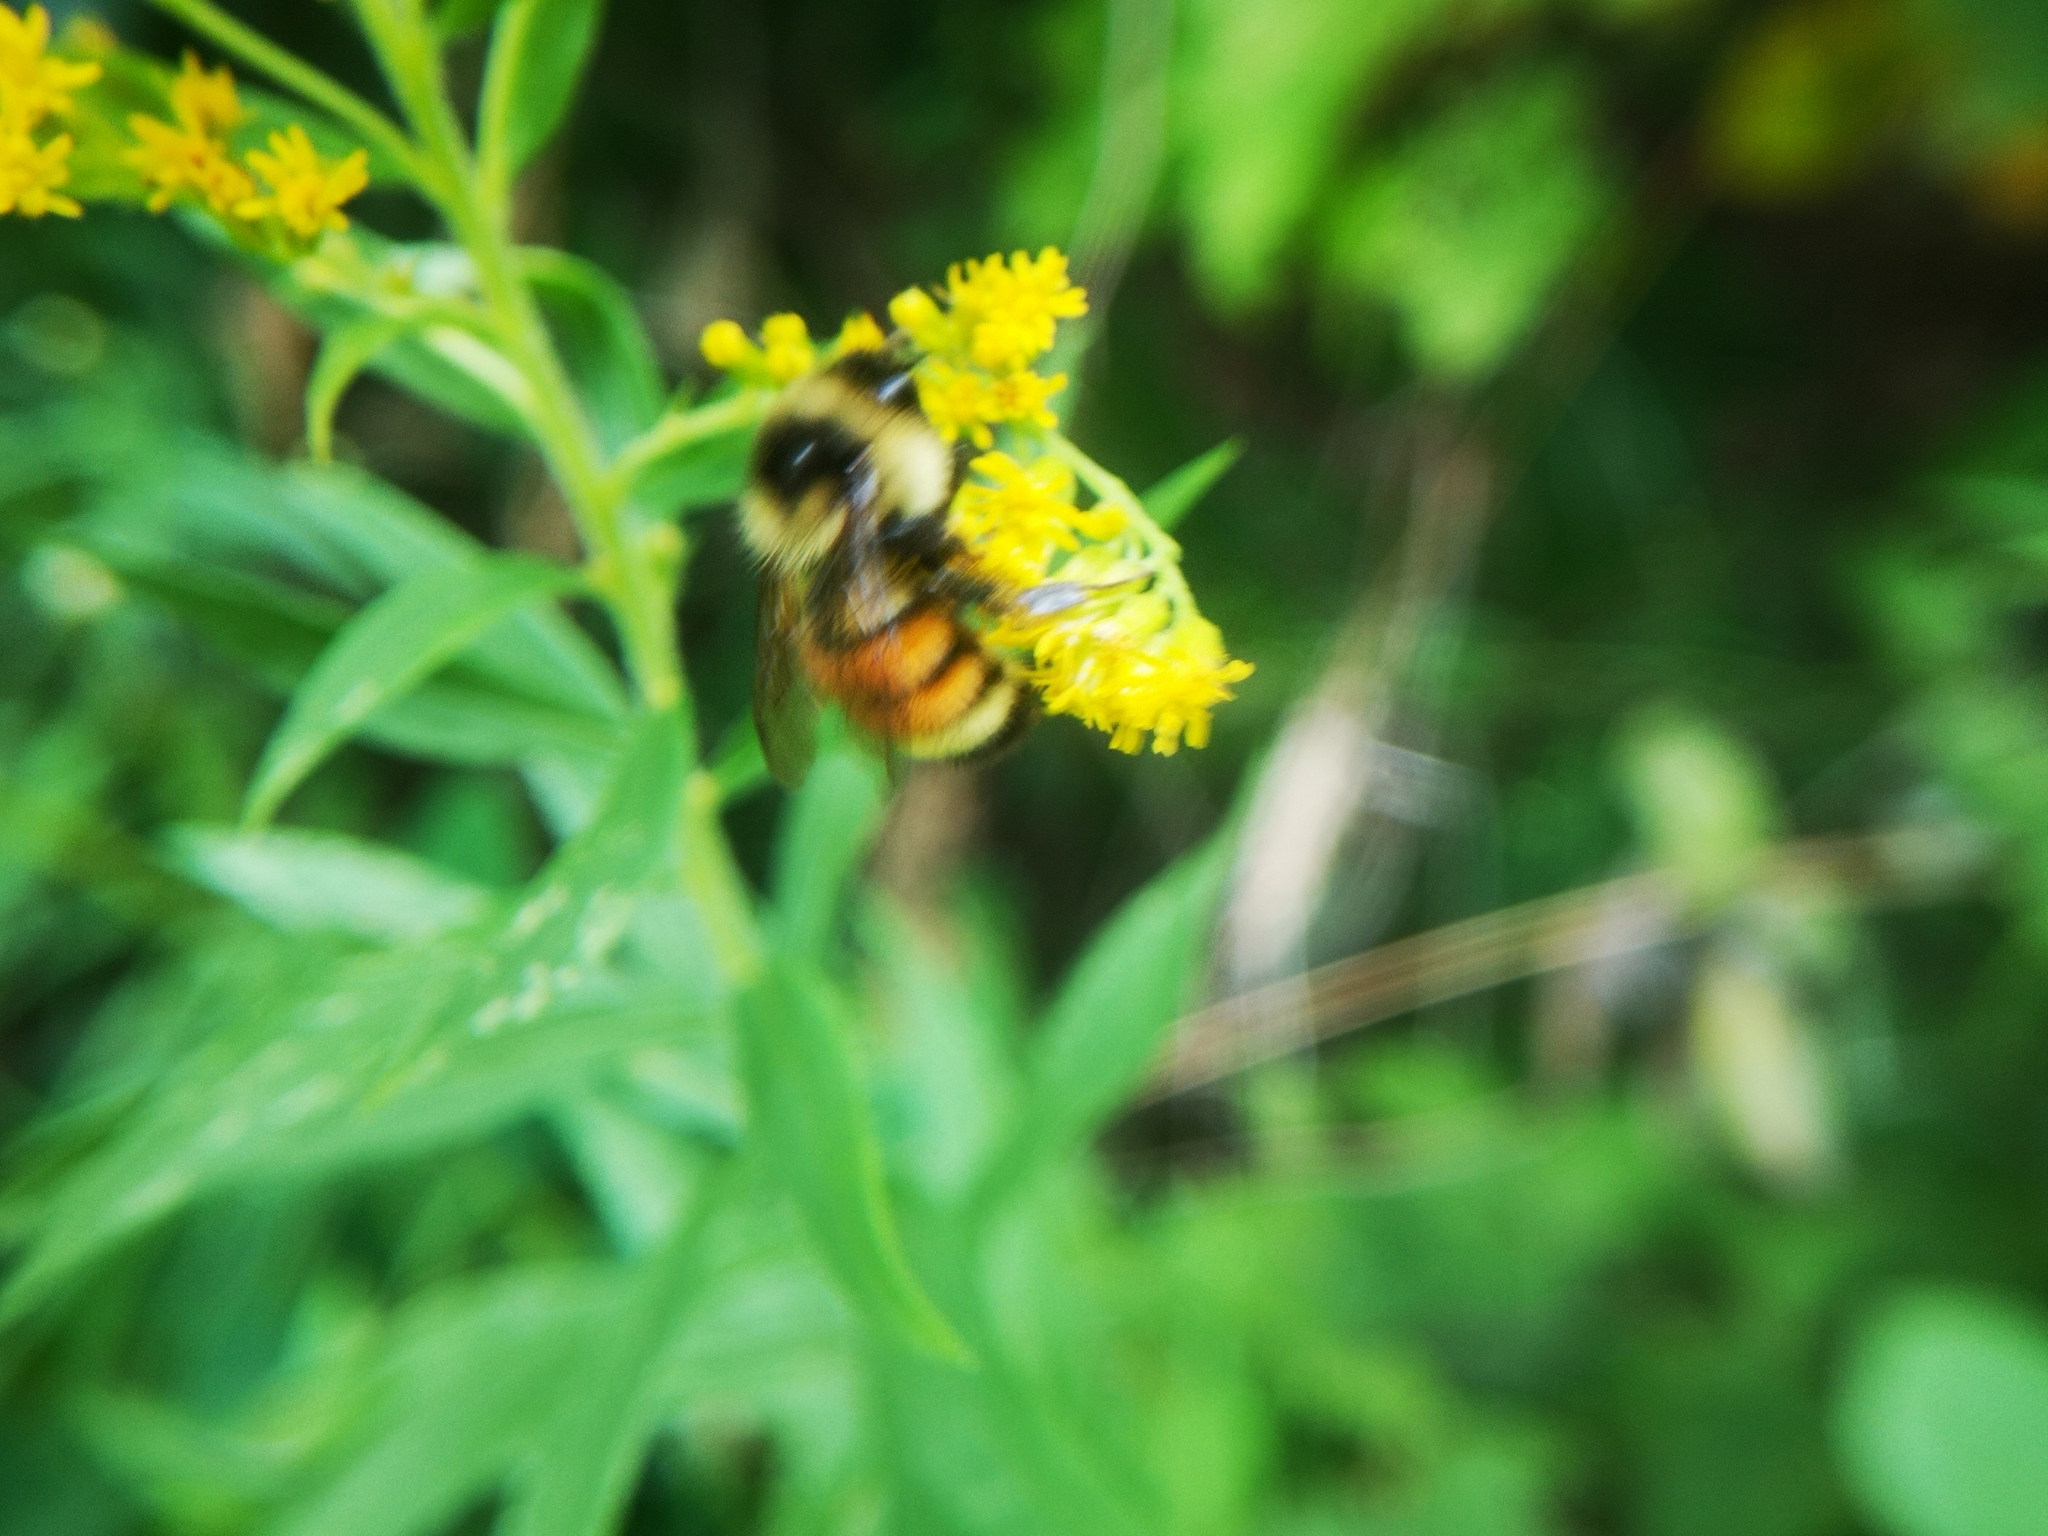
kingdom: Animalia
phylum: Arthropoda
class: Insecta
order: Hymenoptera
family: Apidae
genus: Bombus
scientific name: Bombus ternarius
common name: Tri-colored bumble bee
